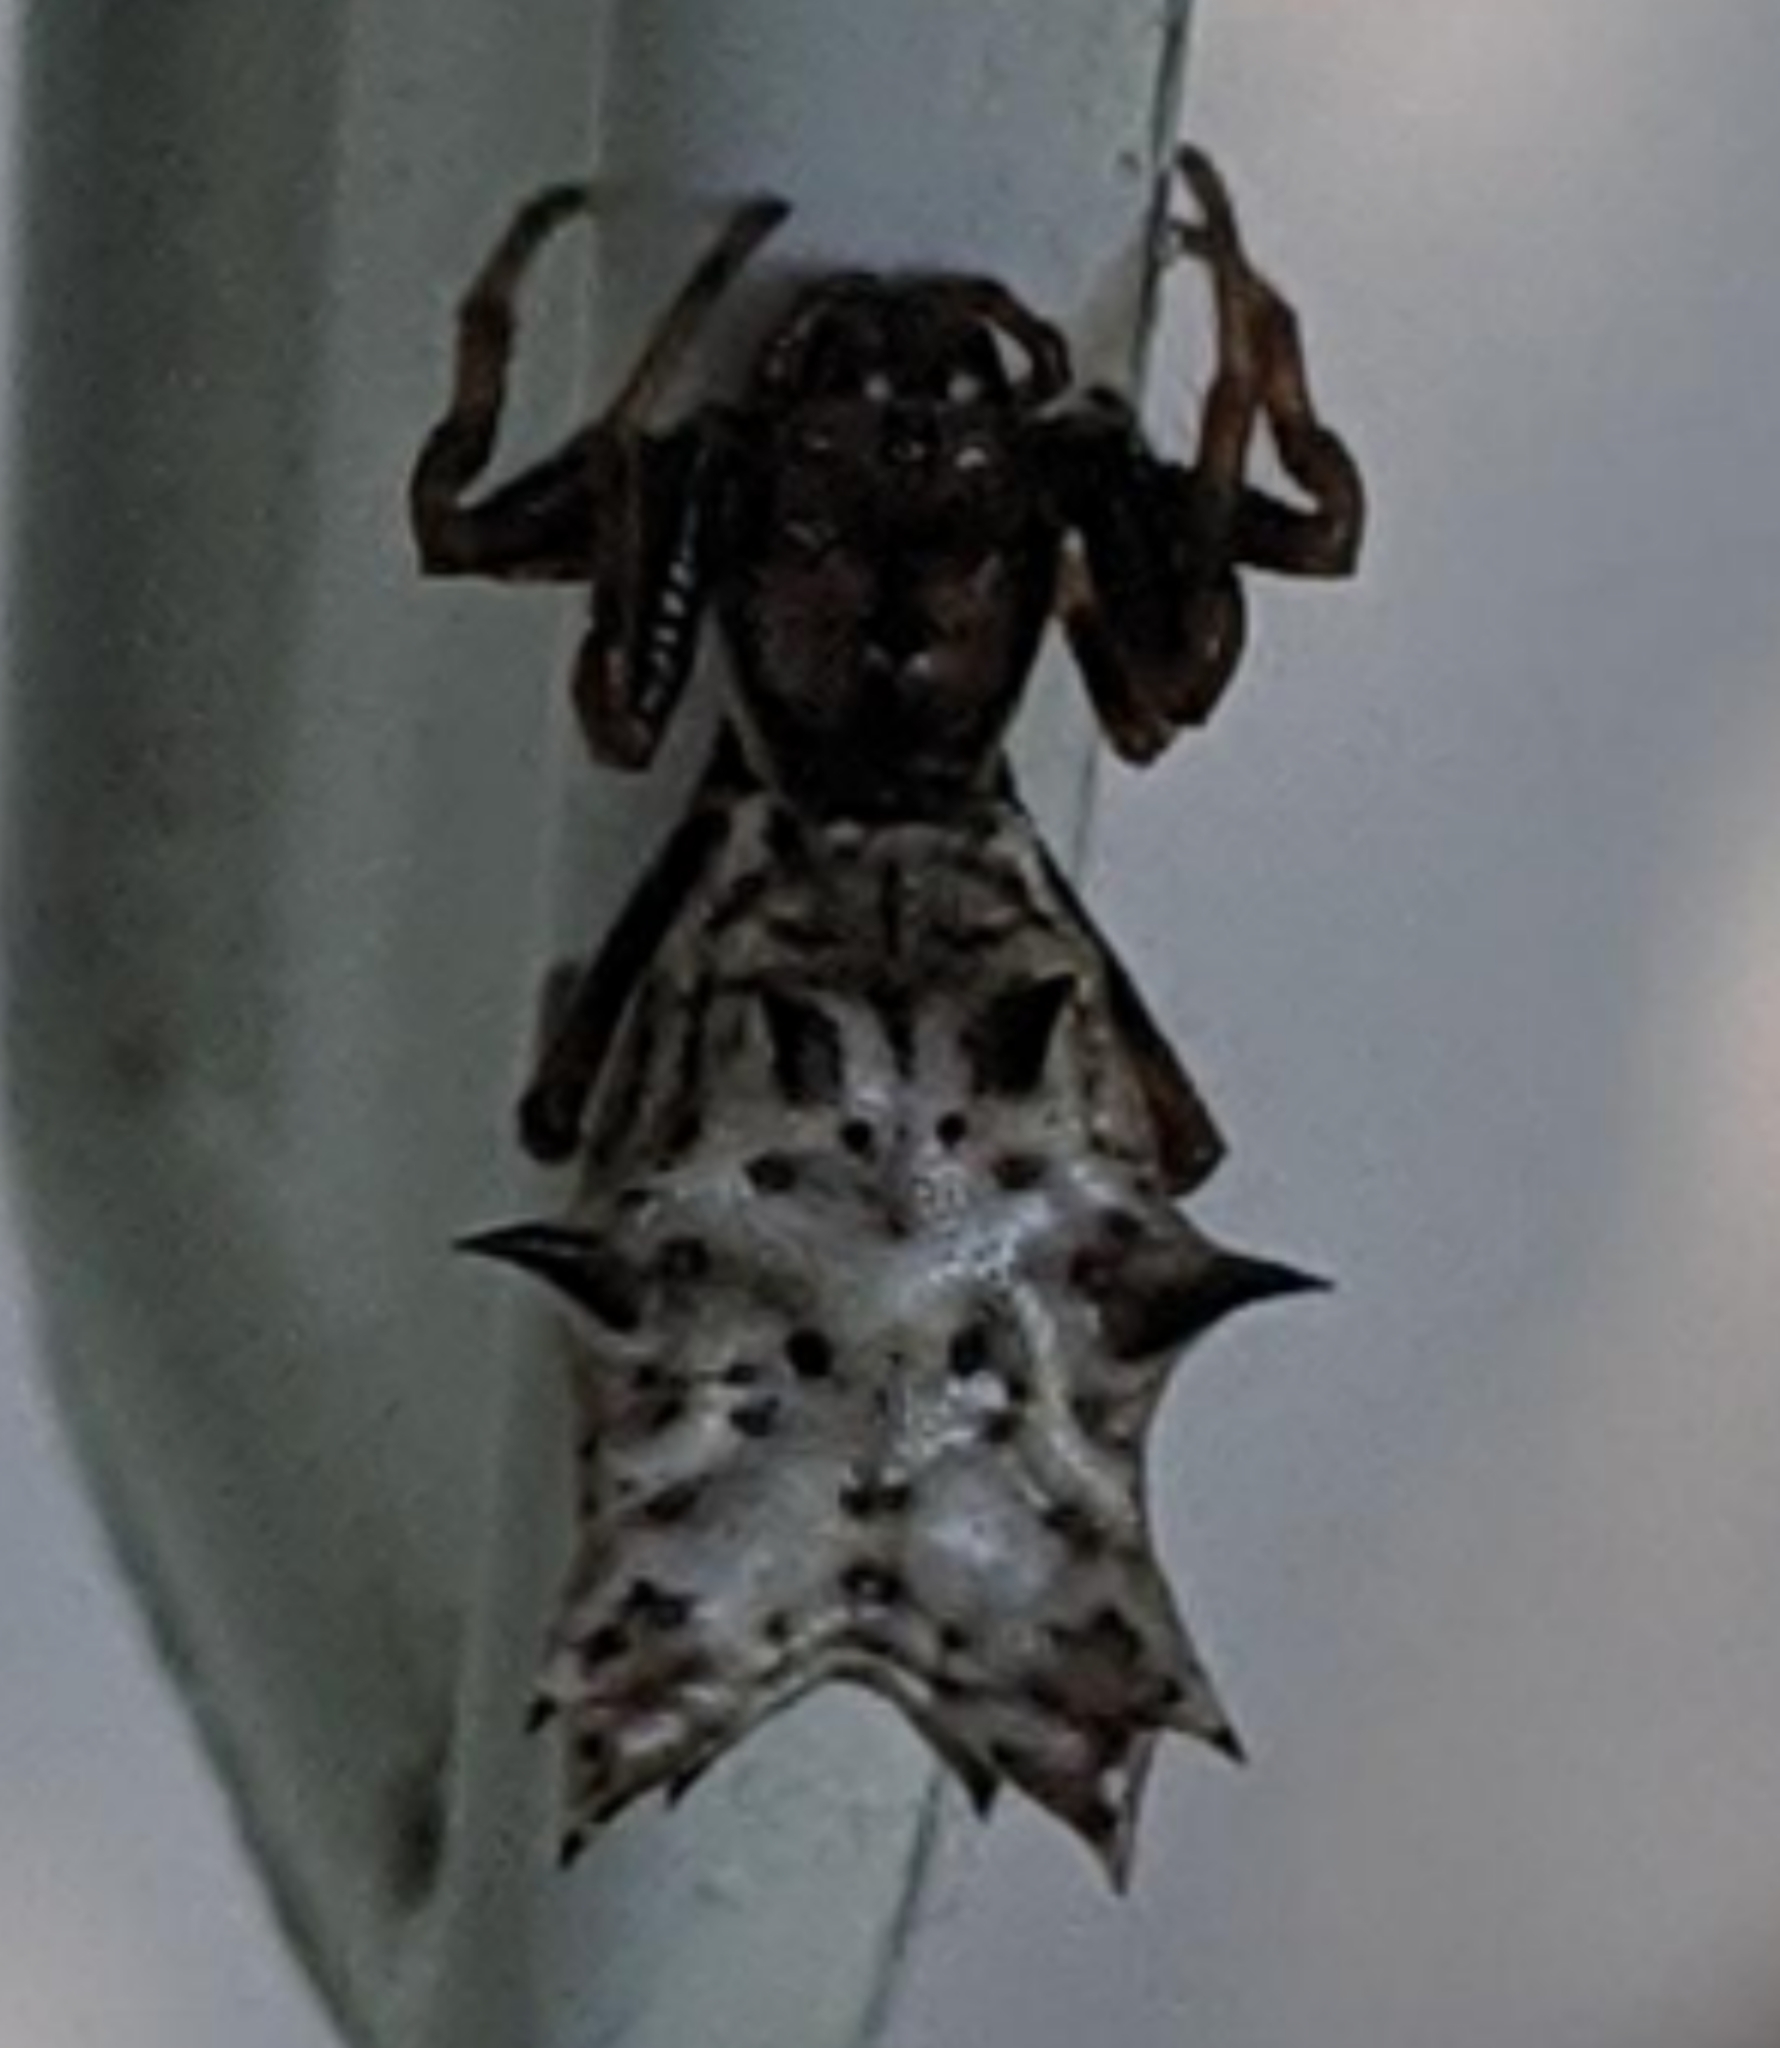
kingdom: Animalia
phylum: Arthropoda
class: Arachnida
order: Araneae
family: Araneidae
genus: Micrathena
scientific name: Micrathena gracilis
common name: Orb weavers
